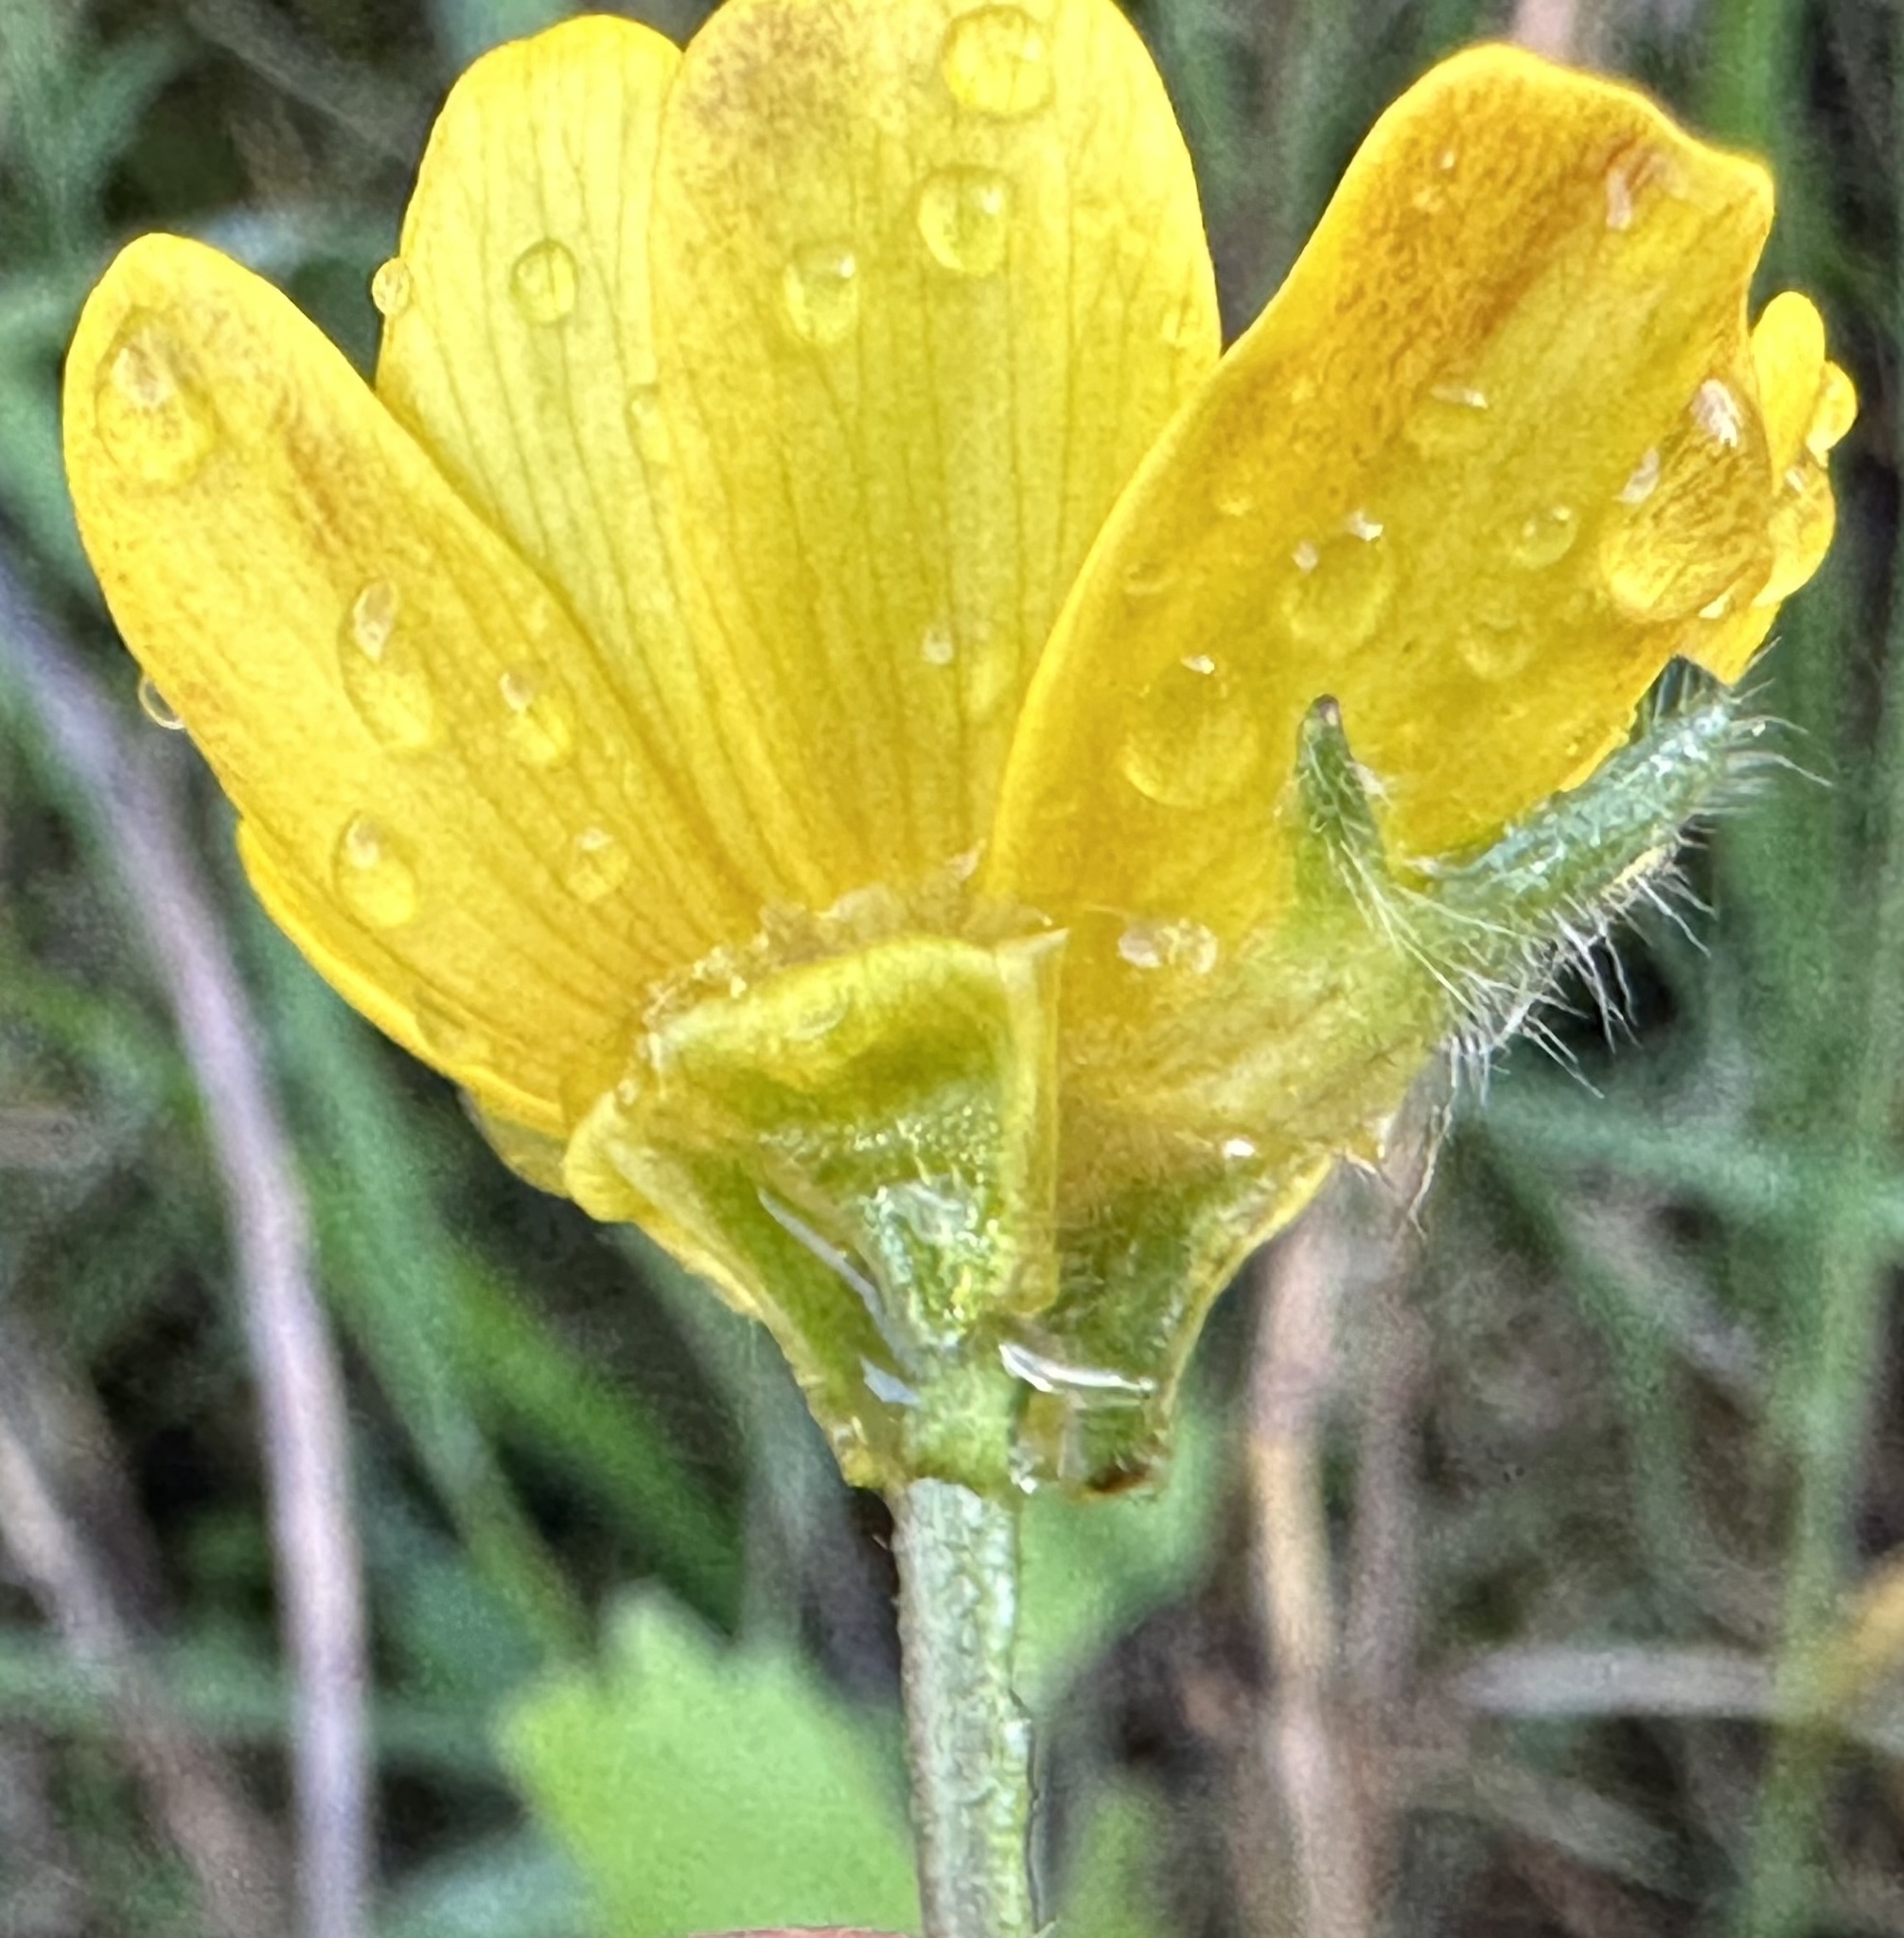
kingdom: Plantae
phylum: Tracheophyta
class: Magnoliopsida
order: Ranunculales
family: Ranunculaceae
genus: Ranunculus
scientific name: Ranunculus californicus
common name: California buttercup
